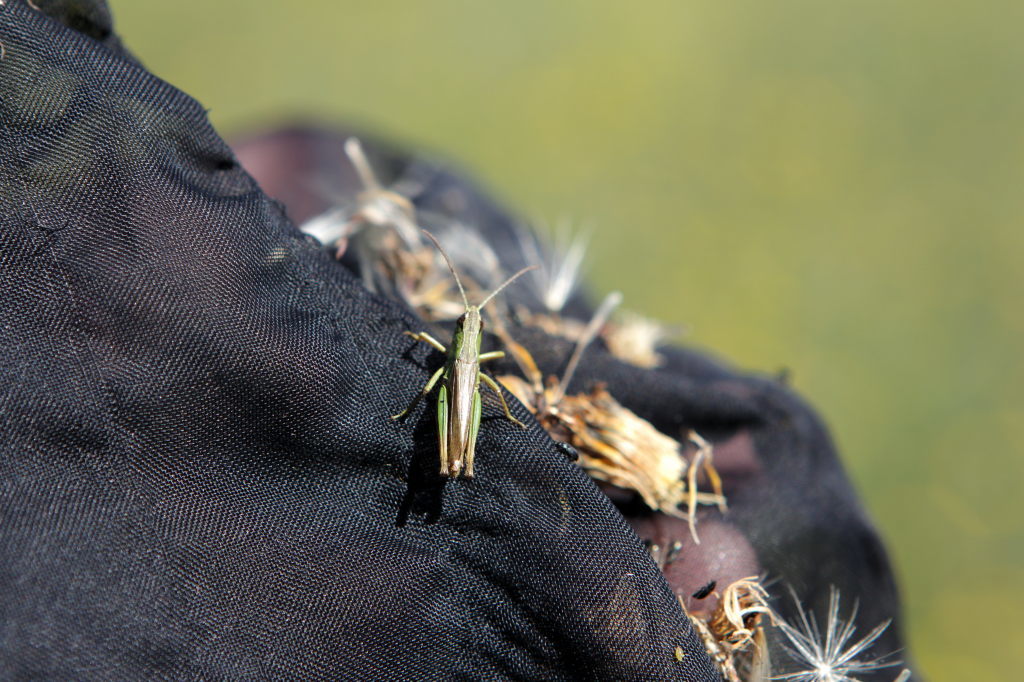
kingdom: Animalia
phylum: Arthropoda
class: Insecta
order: Orthoptera
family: Acrididae
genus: Pseudochorthippus
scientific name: Pseudochorthippus parallelus
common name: Meadow grasshopper
